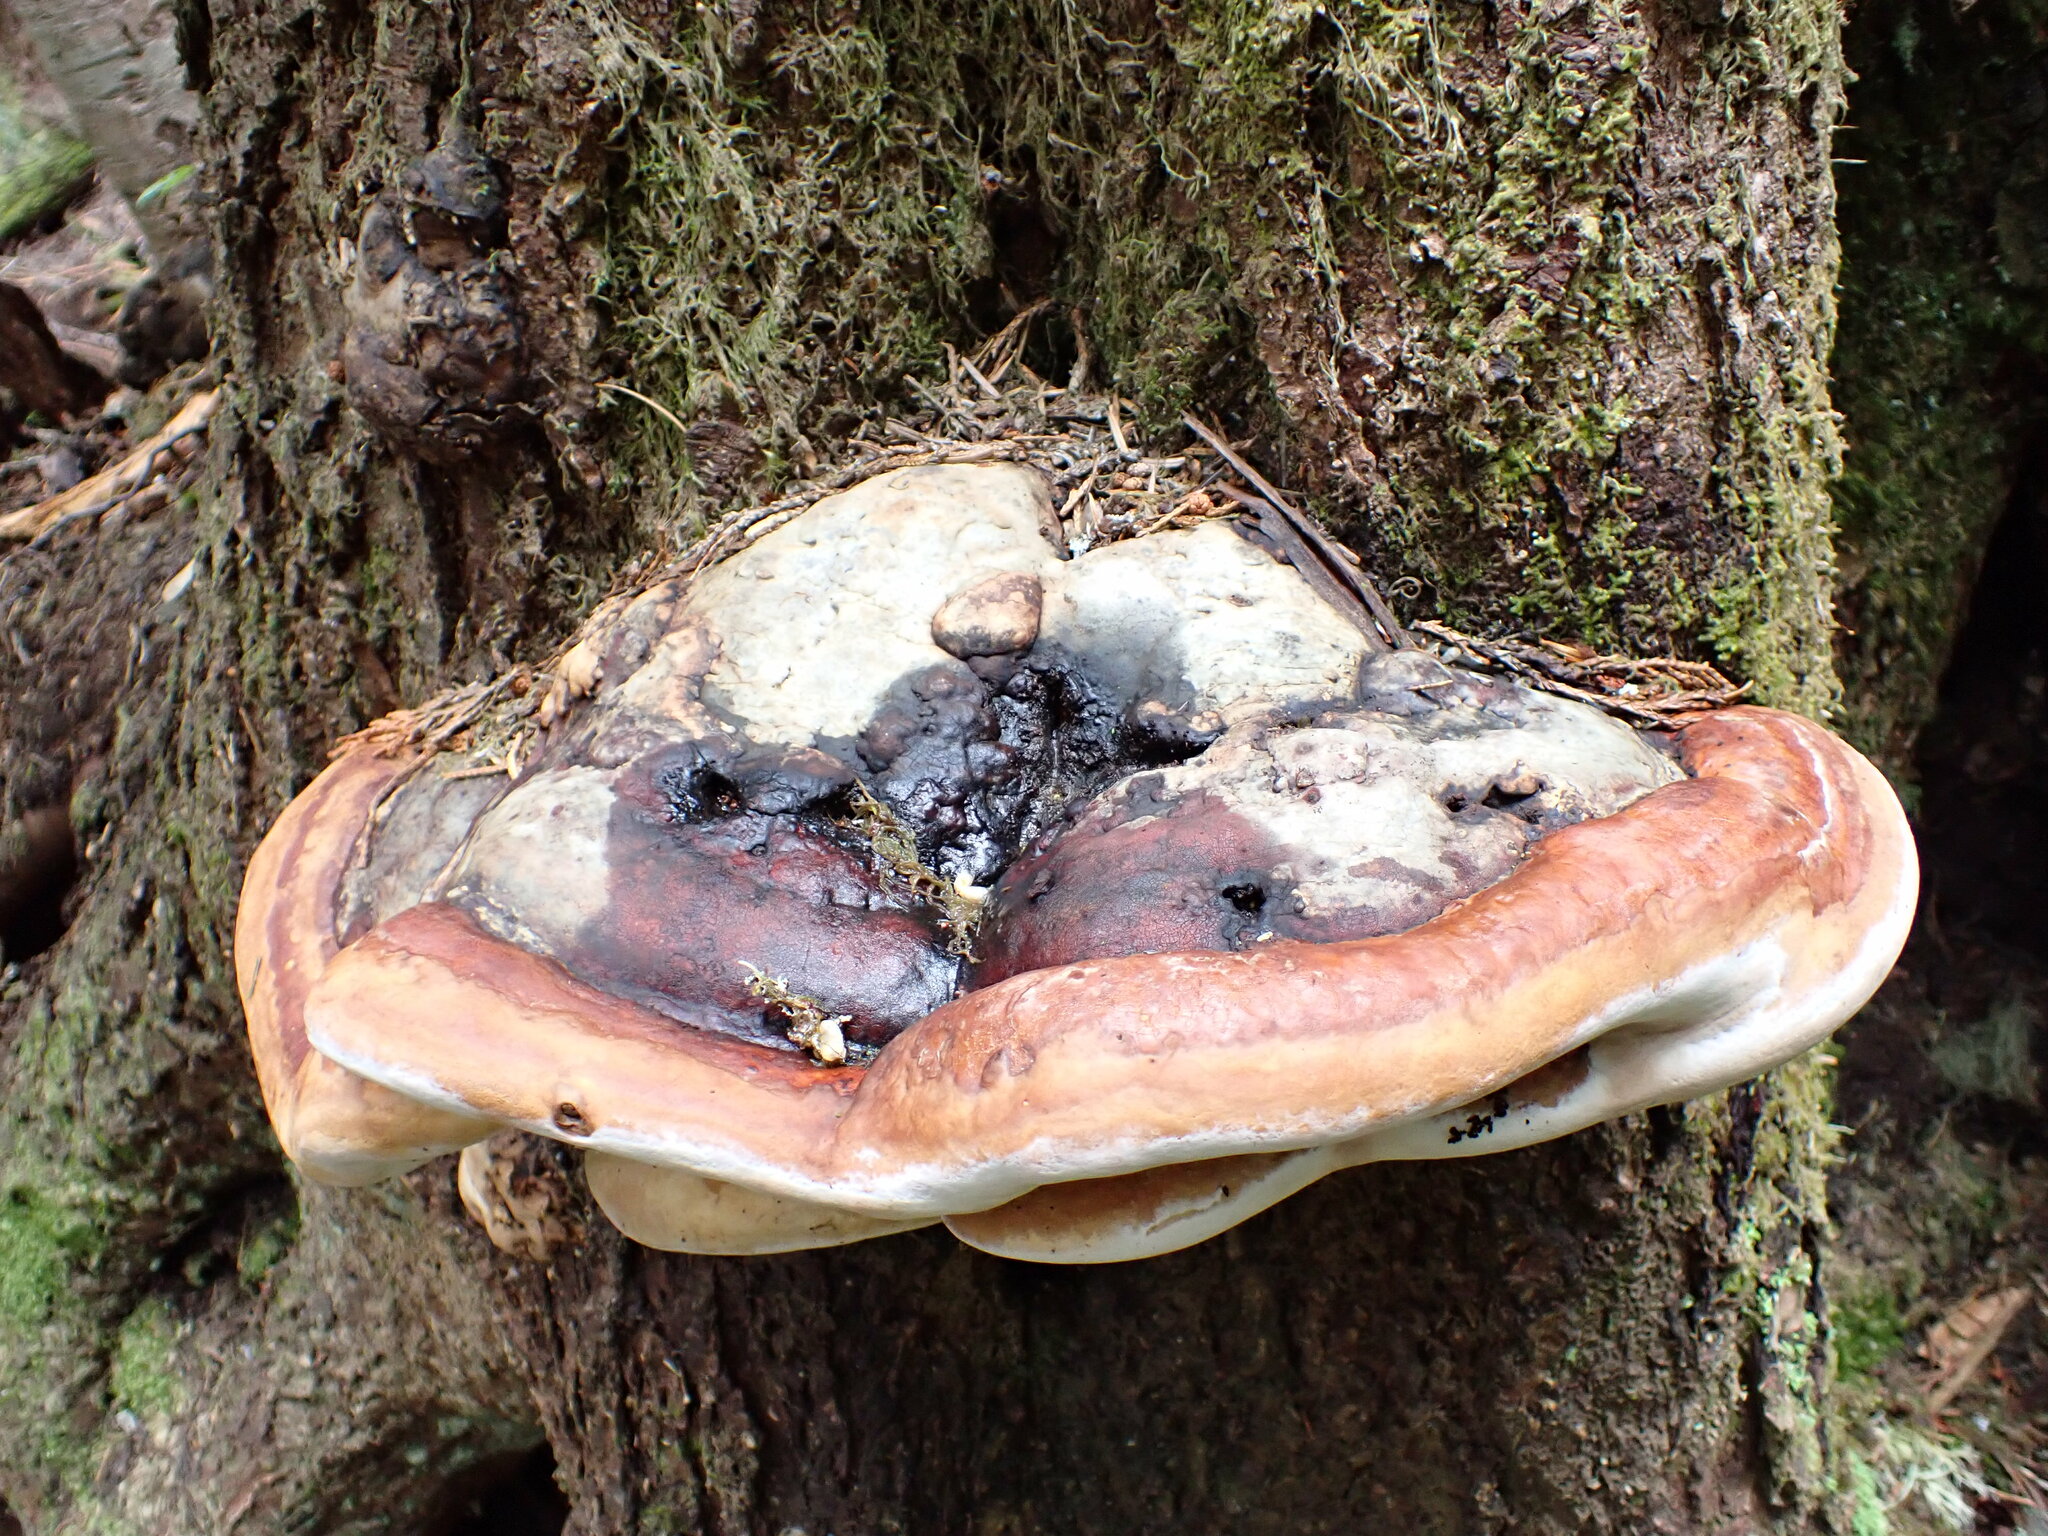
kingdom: Fungi
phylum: Basidiomycota
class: Agaricomycetes
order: Polyporales
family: Fomitopsidaceae
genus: Fomitopsis
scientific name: Fomitopsis mounceae
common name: Northern red belt
